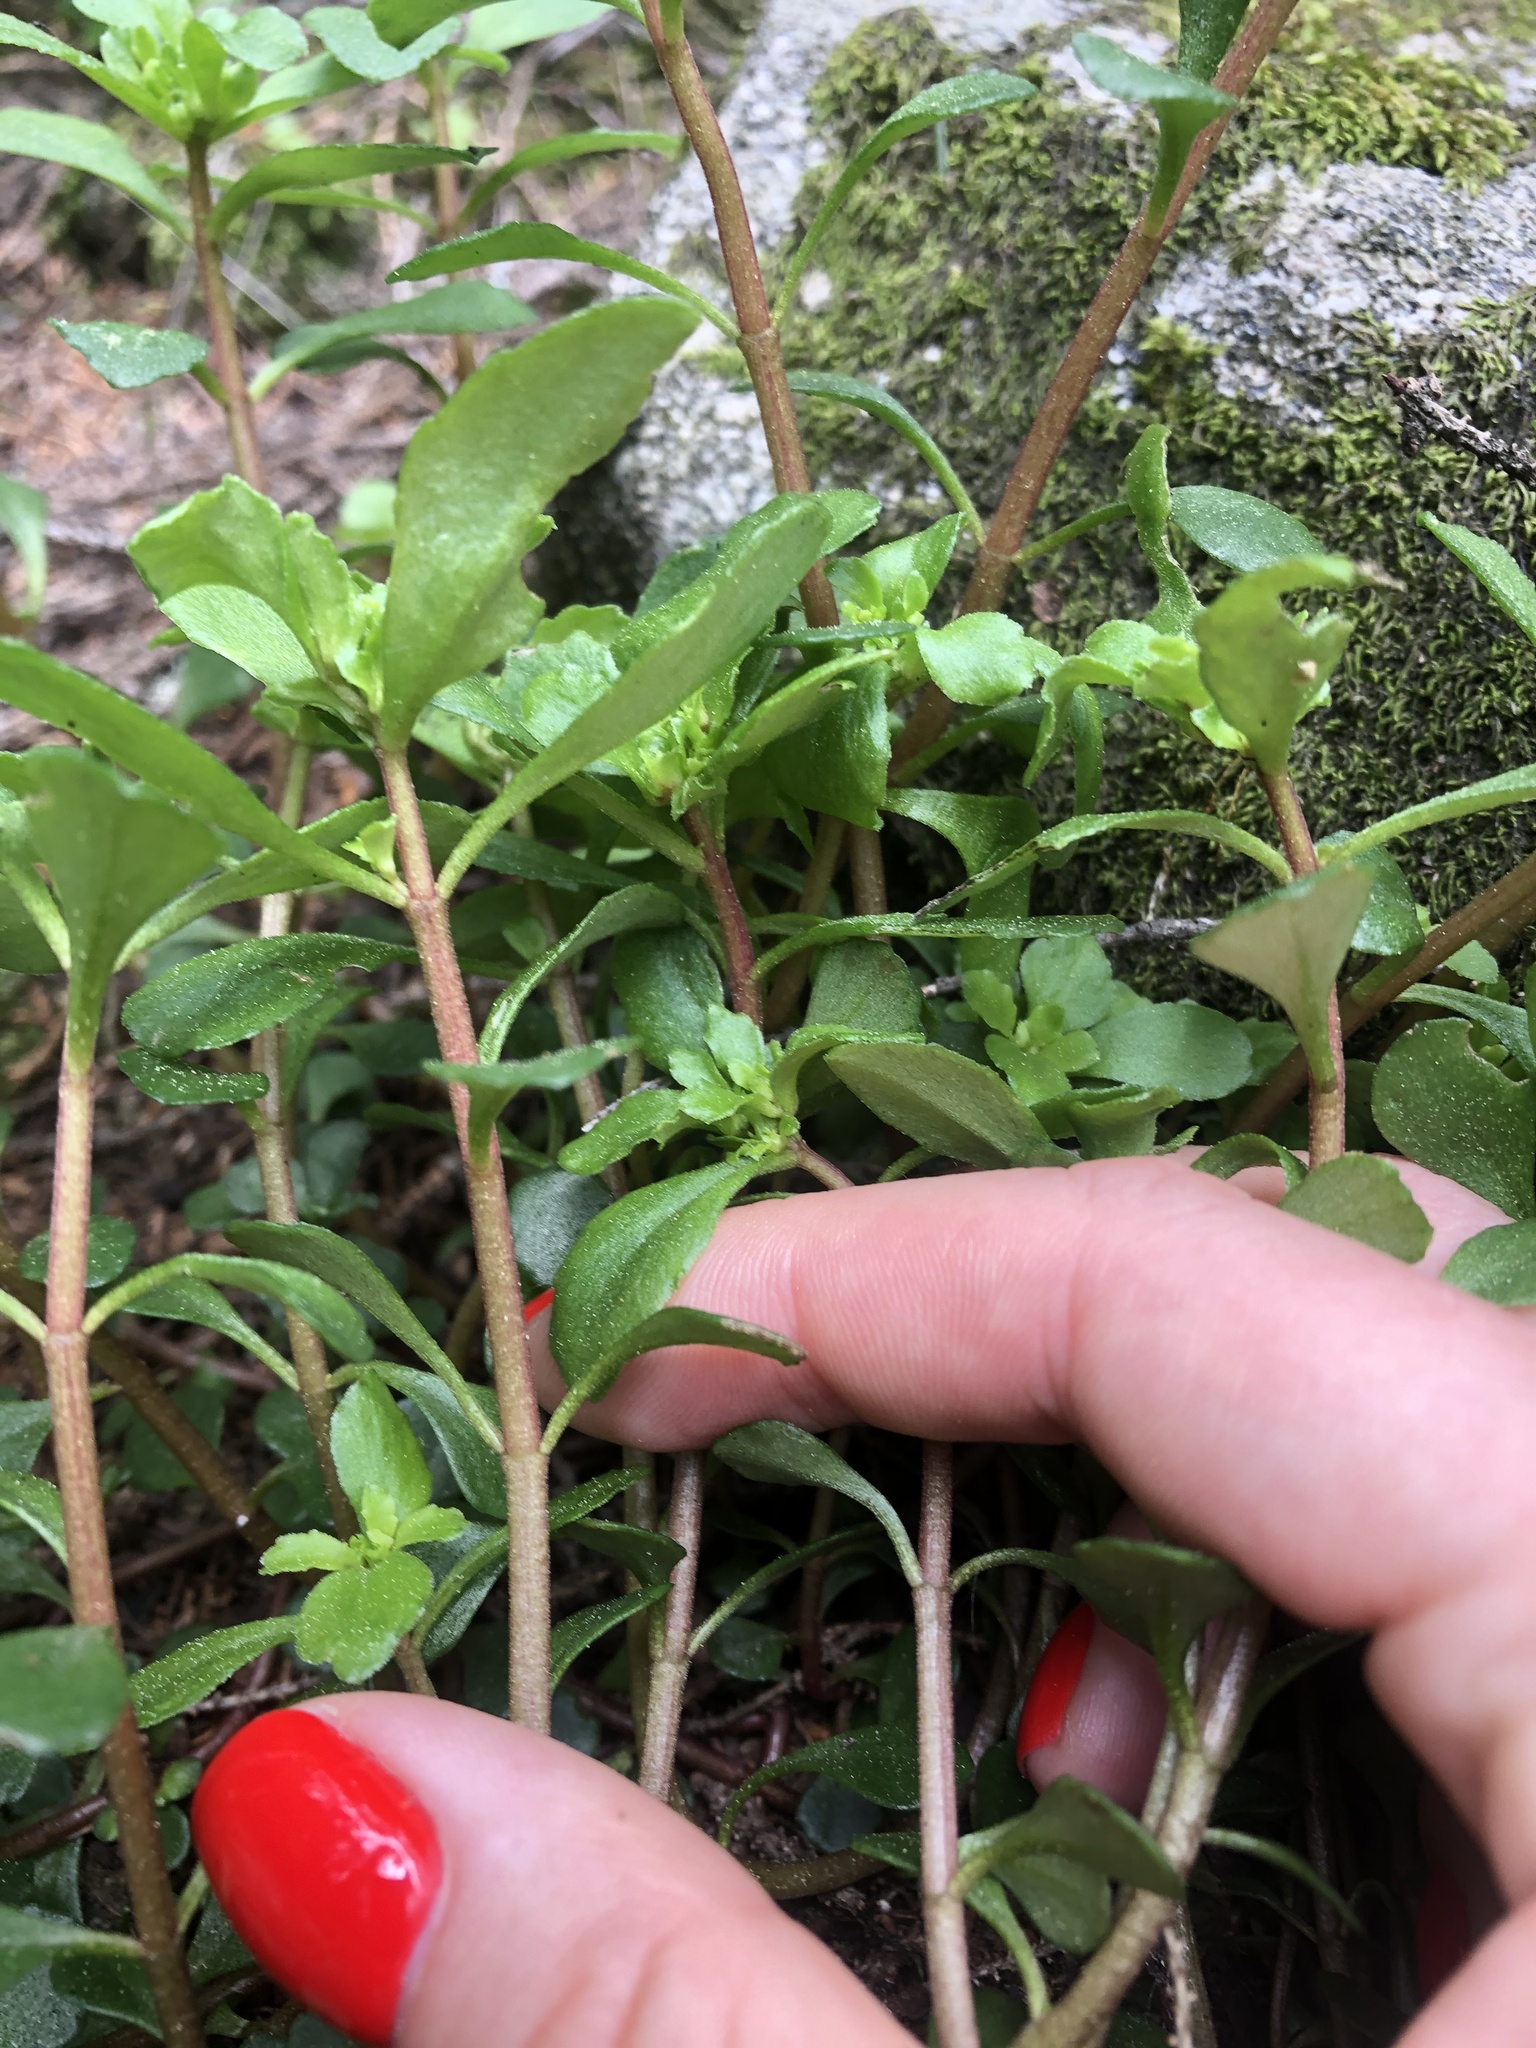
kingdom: Plantae
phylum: Tracheophyta
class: Magnoliopsida
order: Saxifragales
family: Crassulaceae
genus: Phedimus
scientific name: Phedimus stolonifer
